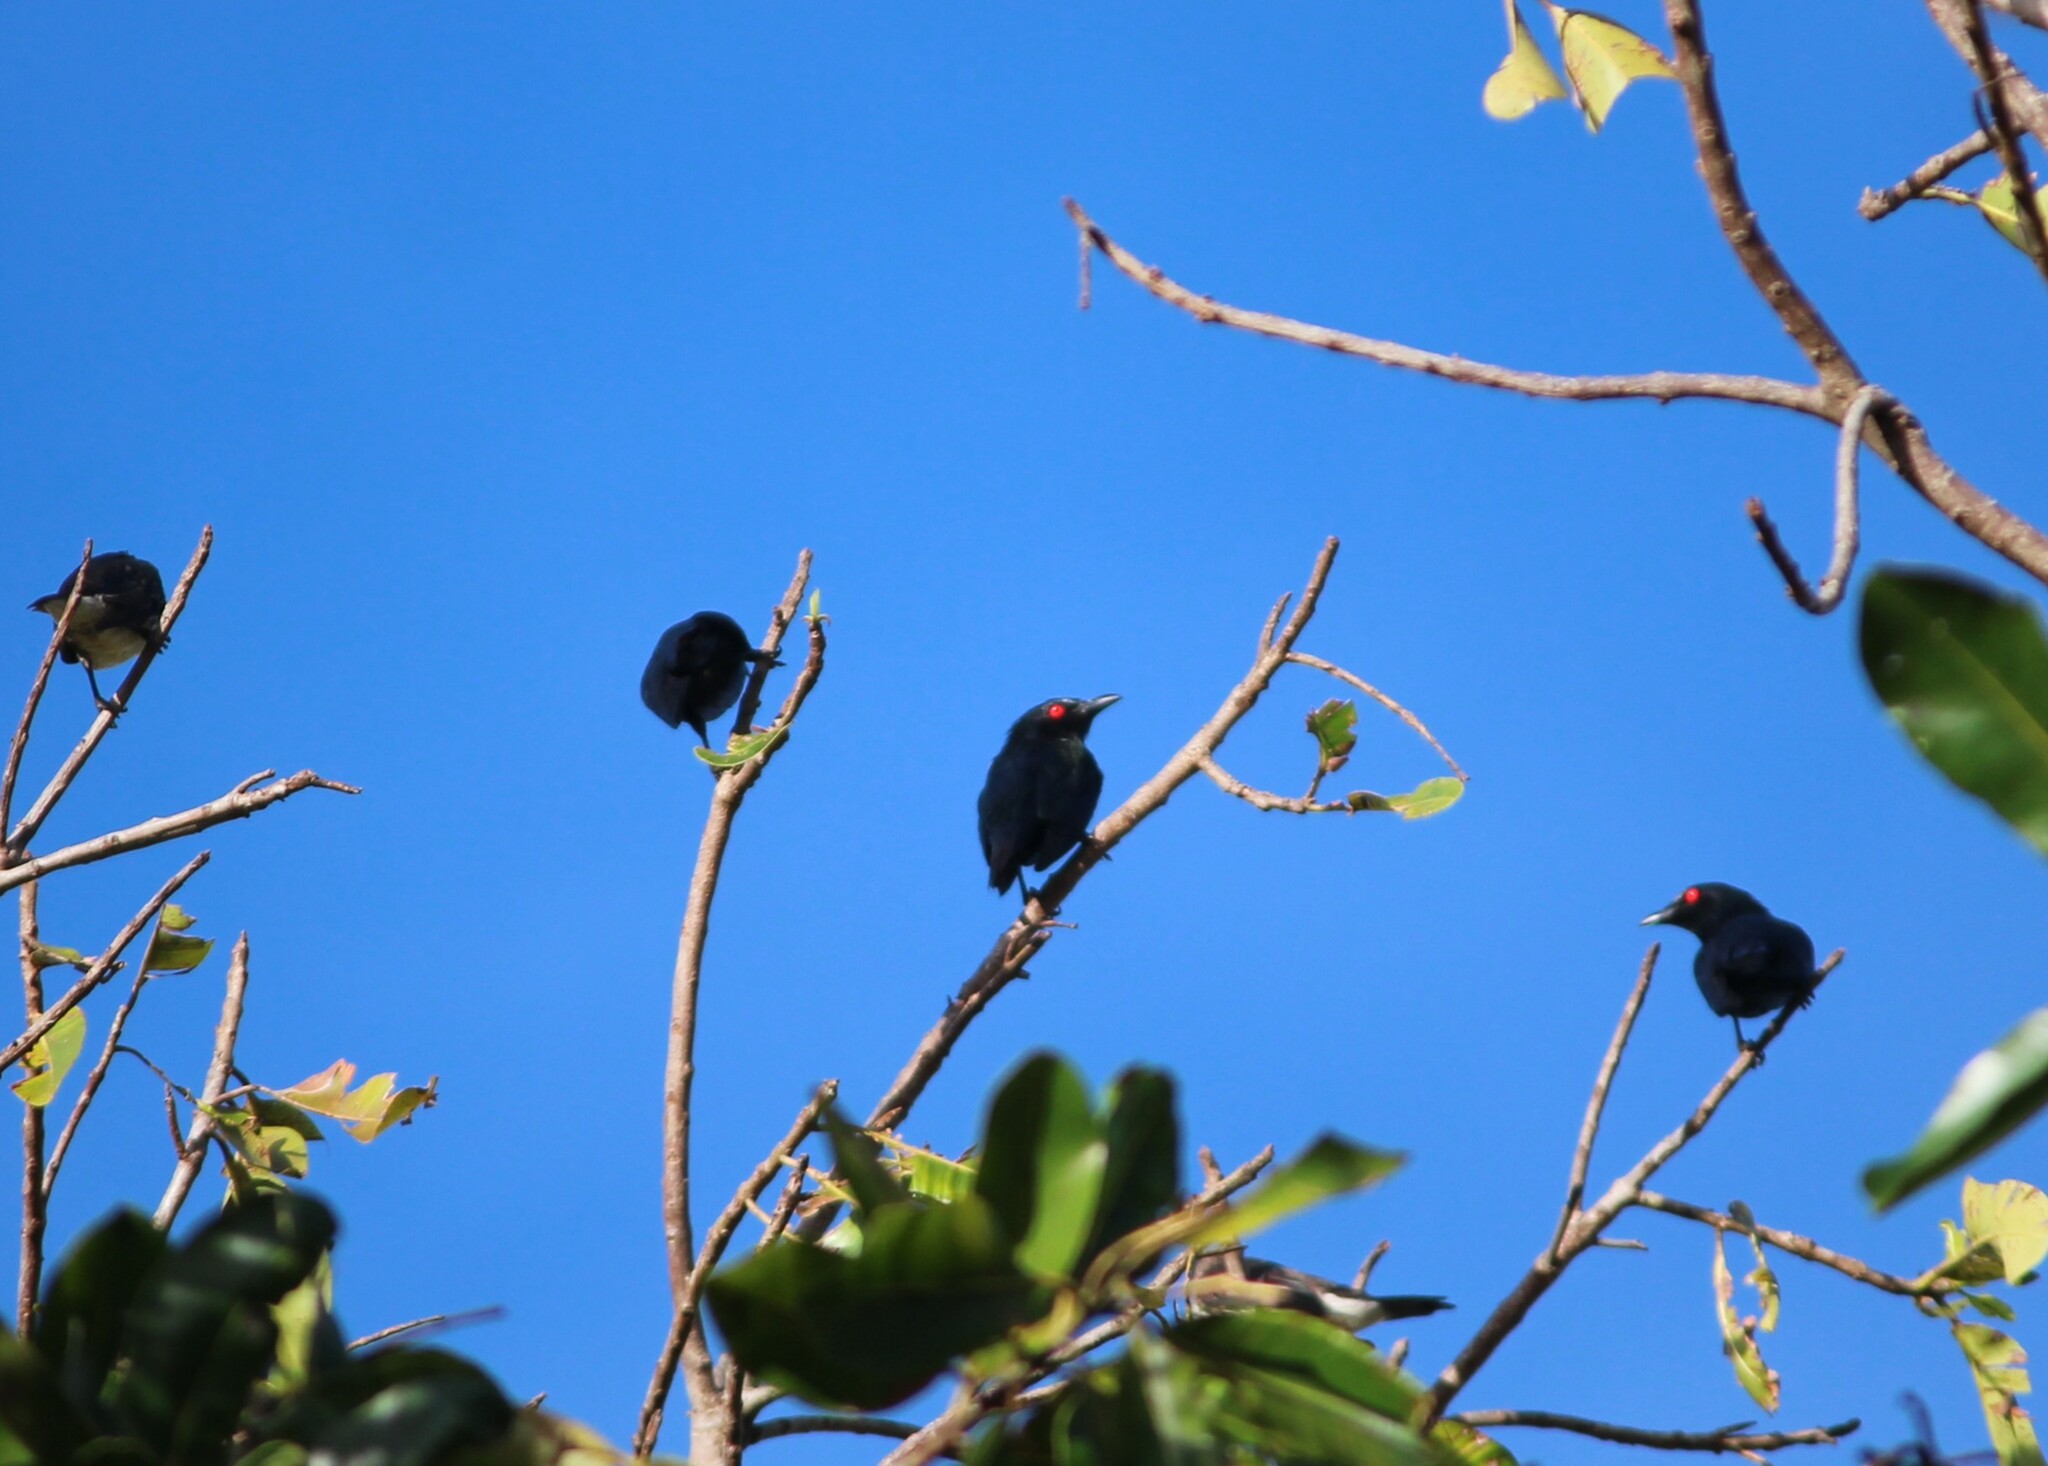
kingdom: Animalia
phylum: Chordata
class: Aves
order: Passeriformes
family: Sturnidae
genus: Aplonis
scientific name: Aplonis metallica
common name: Metallic starling
